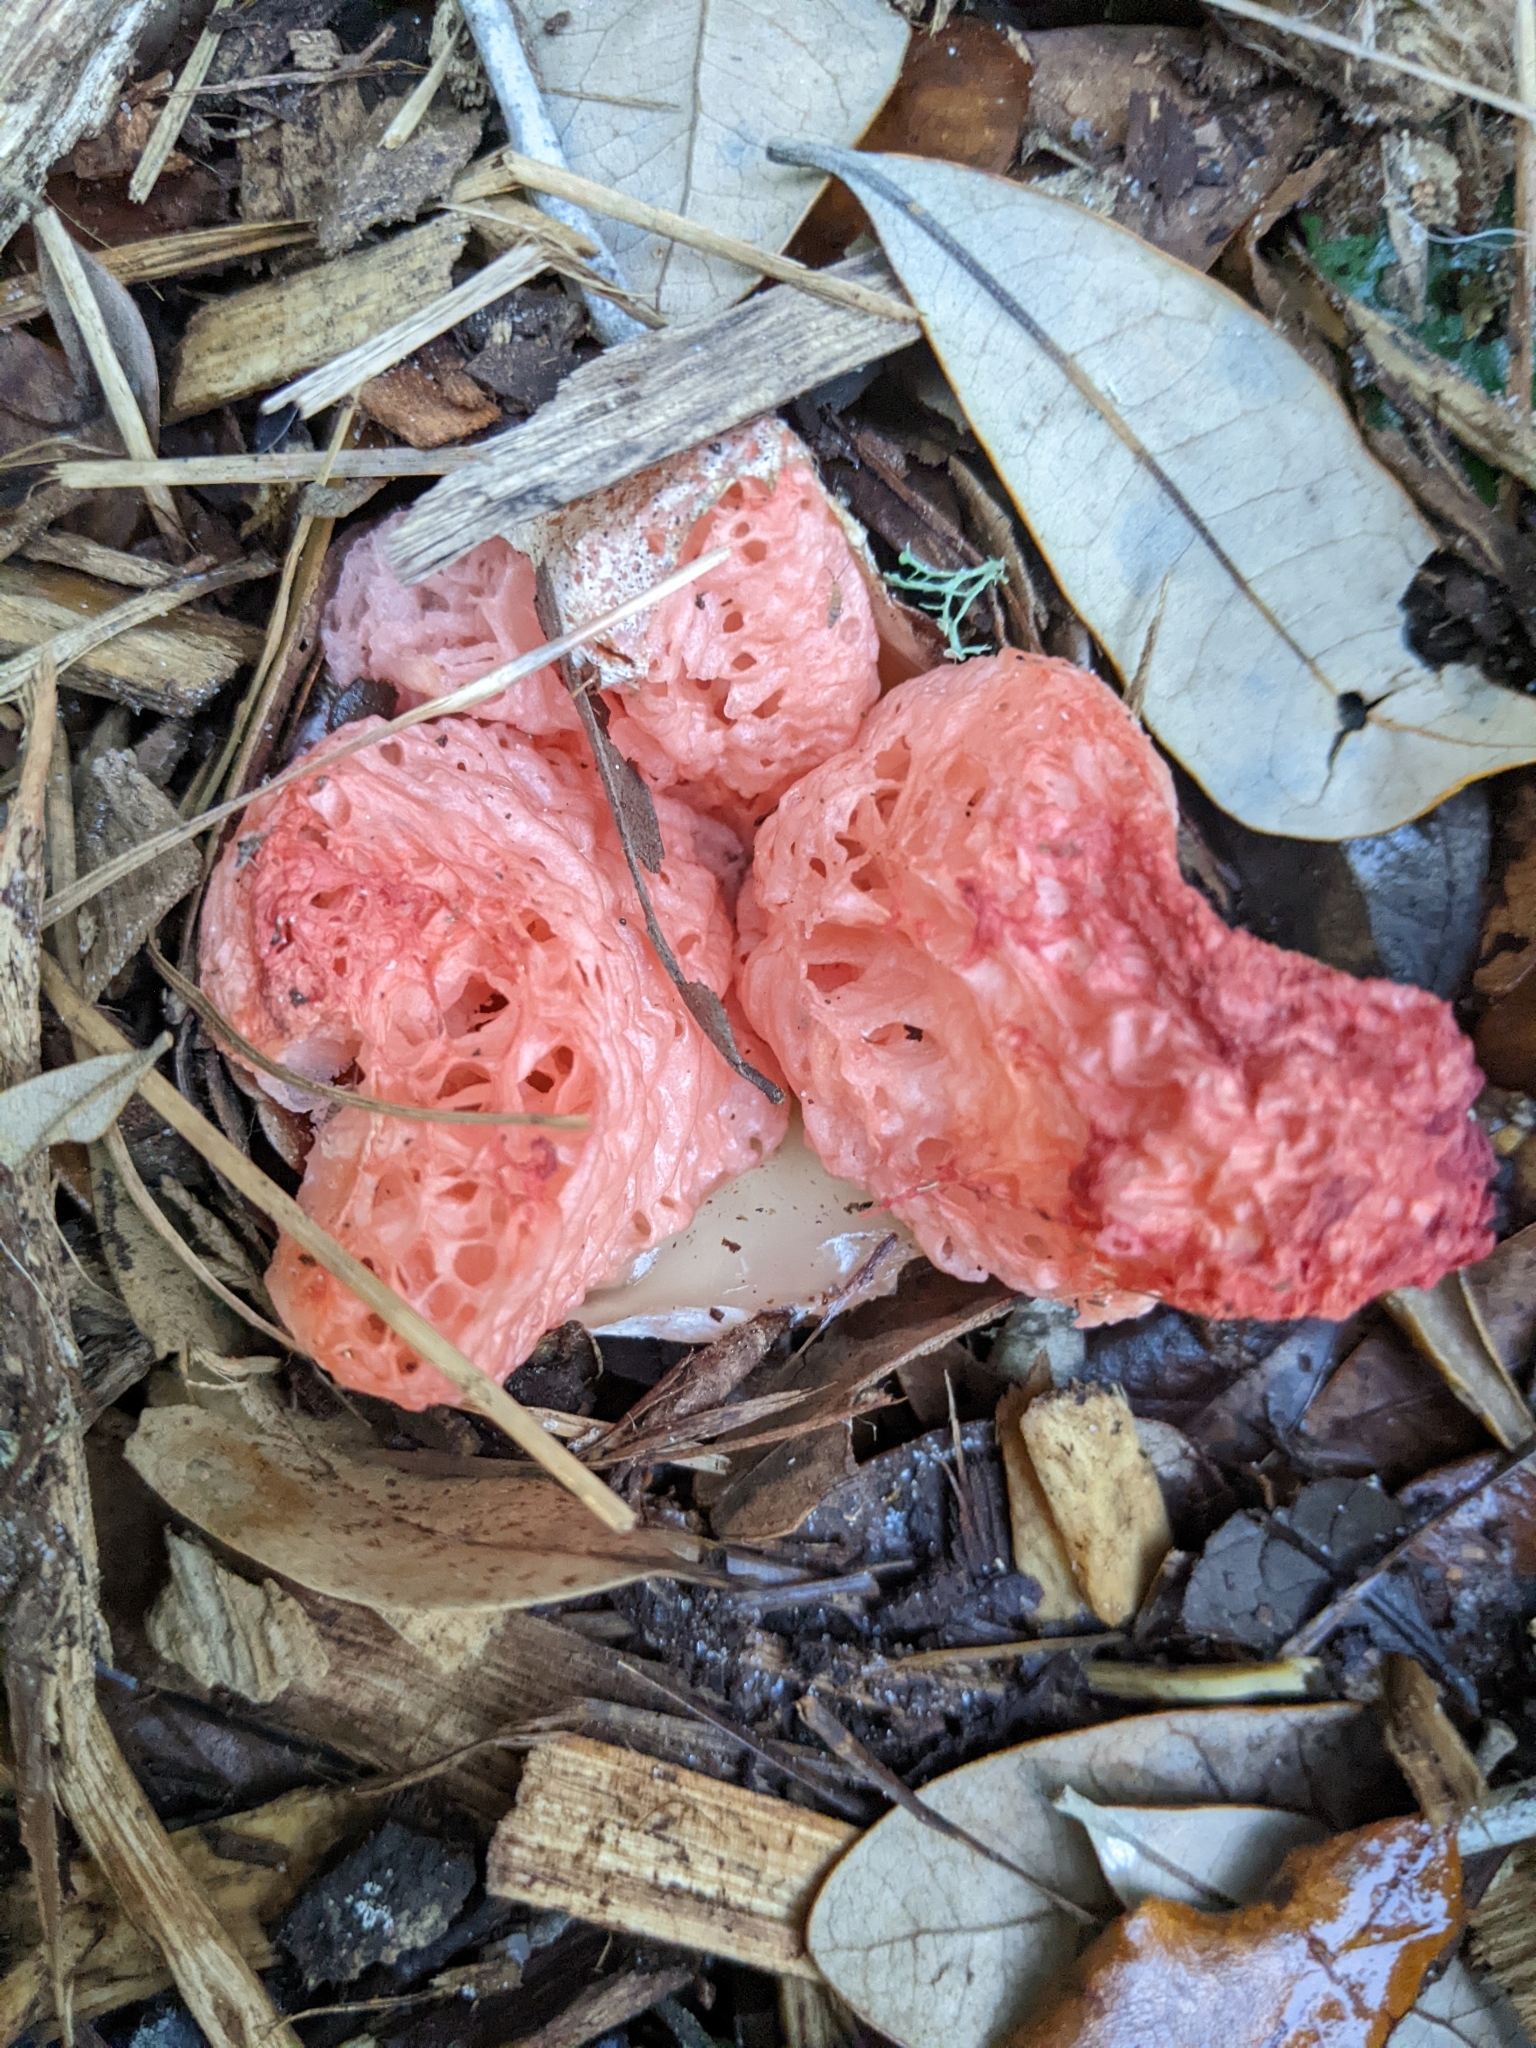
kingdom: Fungi
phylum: Basidiomycota
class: Agaricomycetes
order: Phallales
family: Phallaceae
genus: Clathrus
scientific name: Clathrus columnatus
